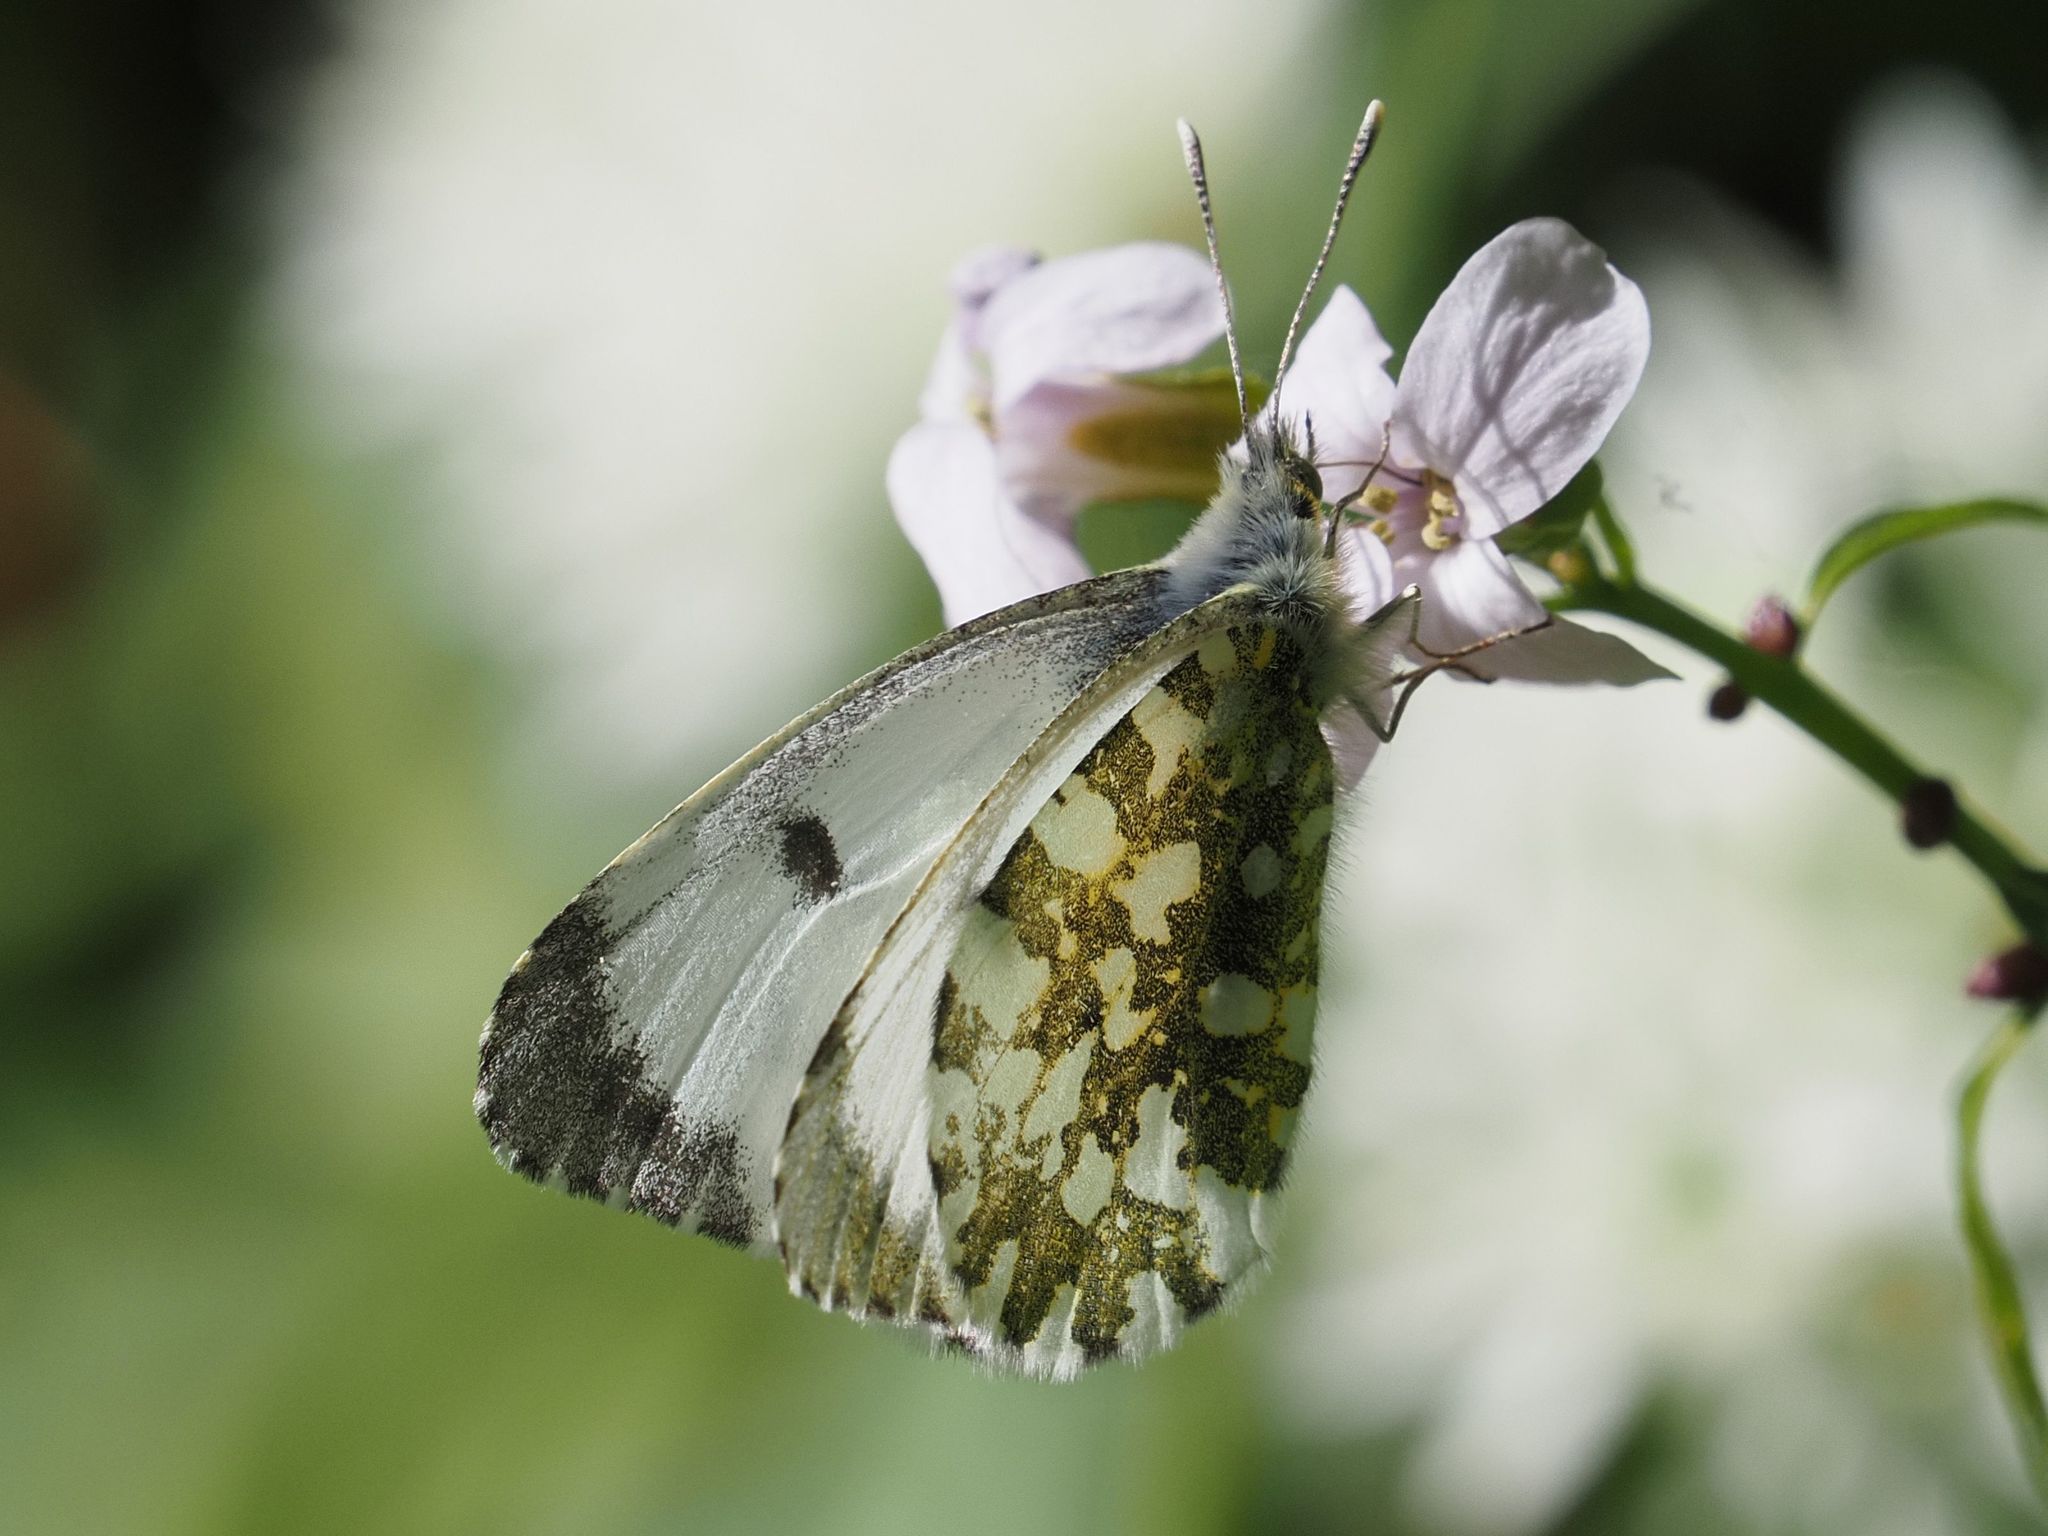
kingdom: Animalia
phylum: Arthropoda
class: Insecta
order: Lepidoptera
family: Pieridae
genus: Anthocharis
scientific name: Anthocharis cardamines
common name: Orange-tip
